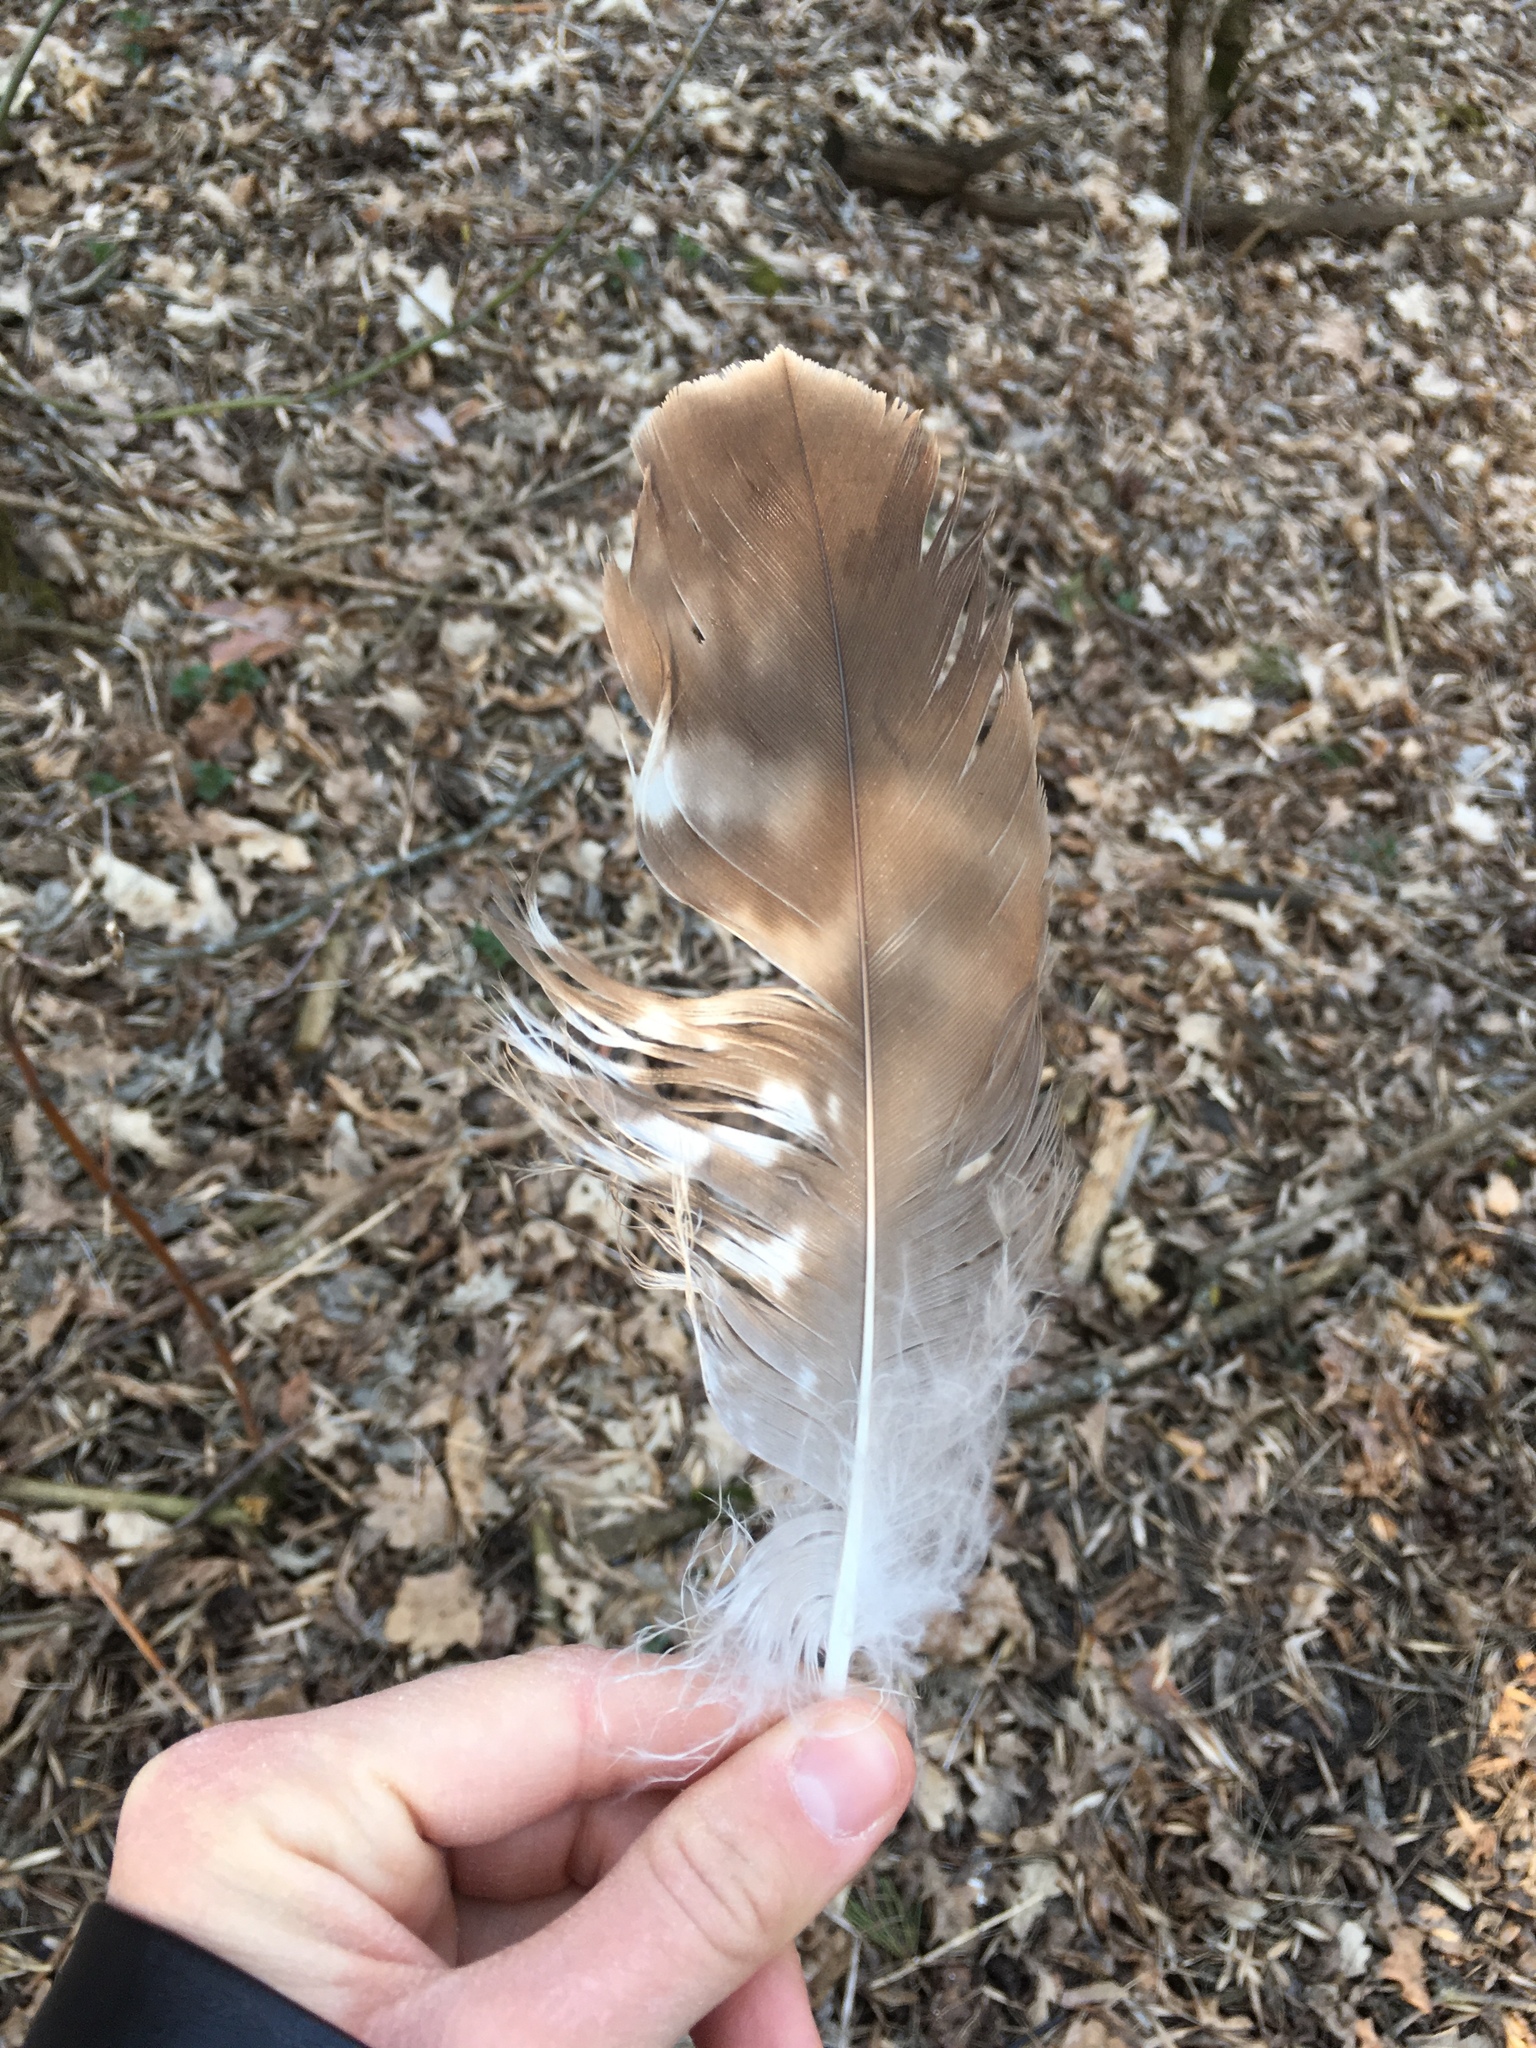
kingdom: Animalia
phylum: Chordata
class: Aves
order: Accipitriformes
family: Accipitridae
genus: Buteo
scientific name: Buteo buteo
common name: Common buzzard
